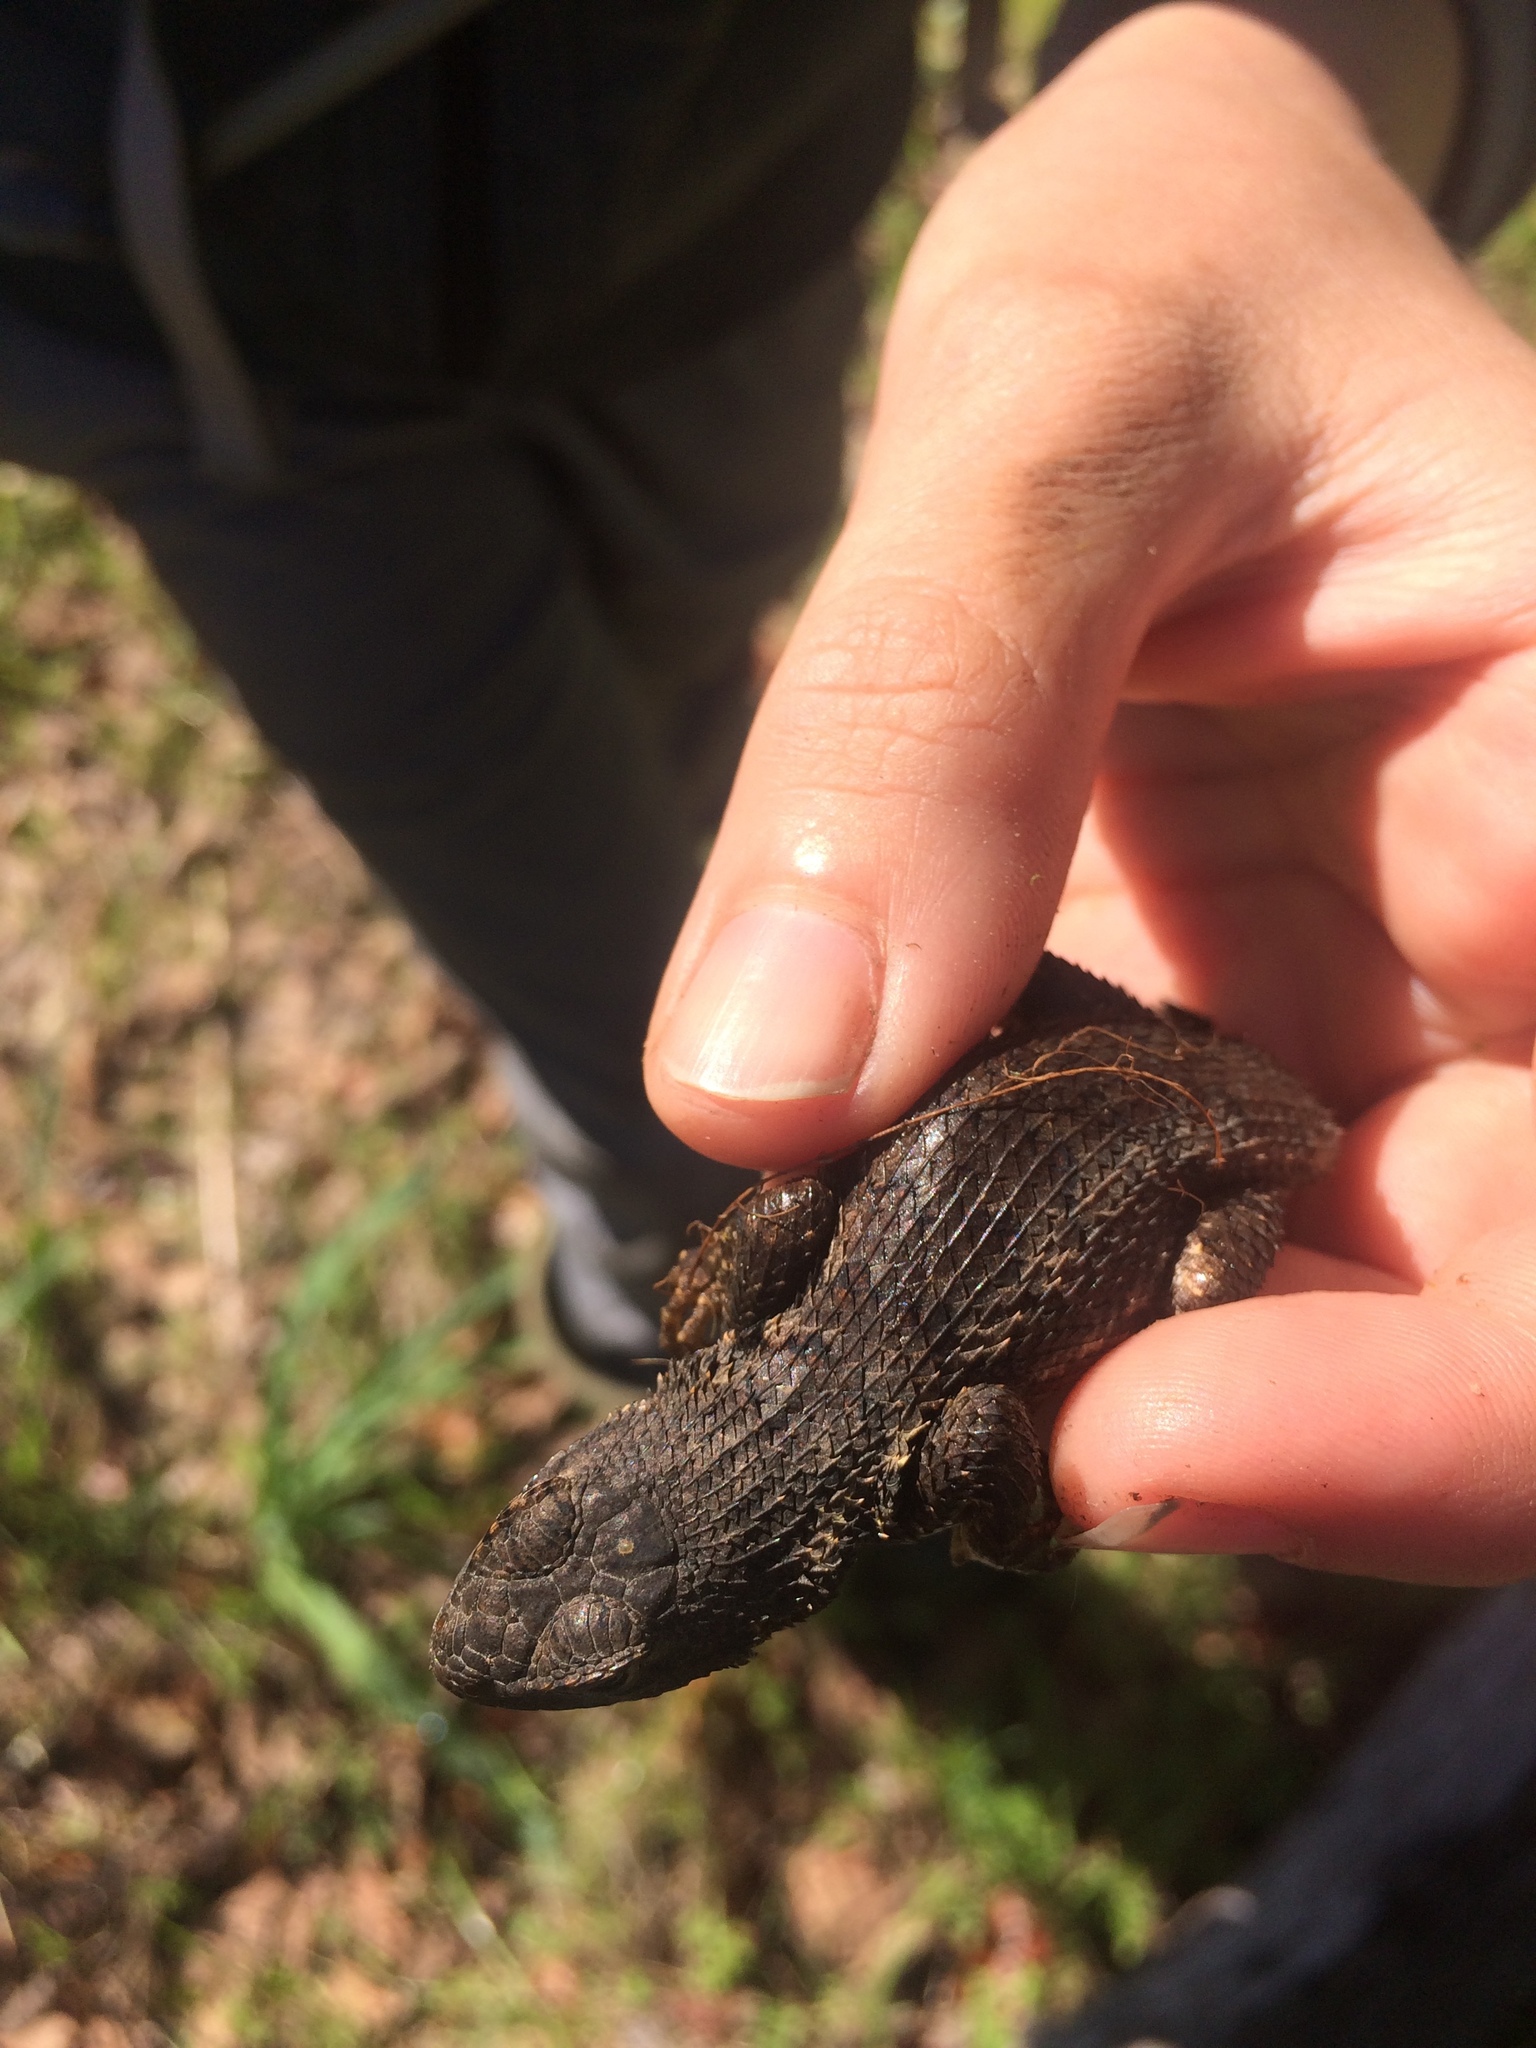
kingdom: Animalia
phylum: Chordata
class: Squamata
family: Phrynosomatidae
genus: Sceloporus
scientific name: Sceloporus occidentalis
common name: Western fence lizard
